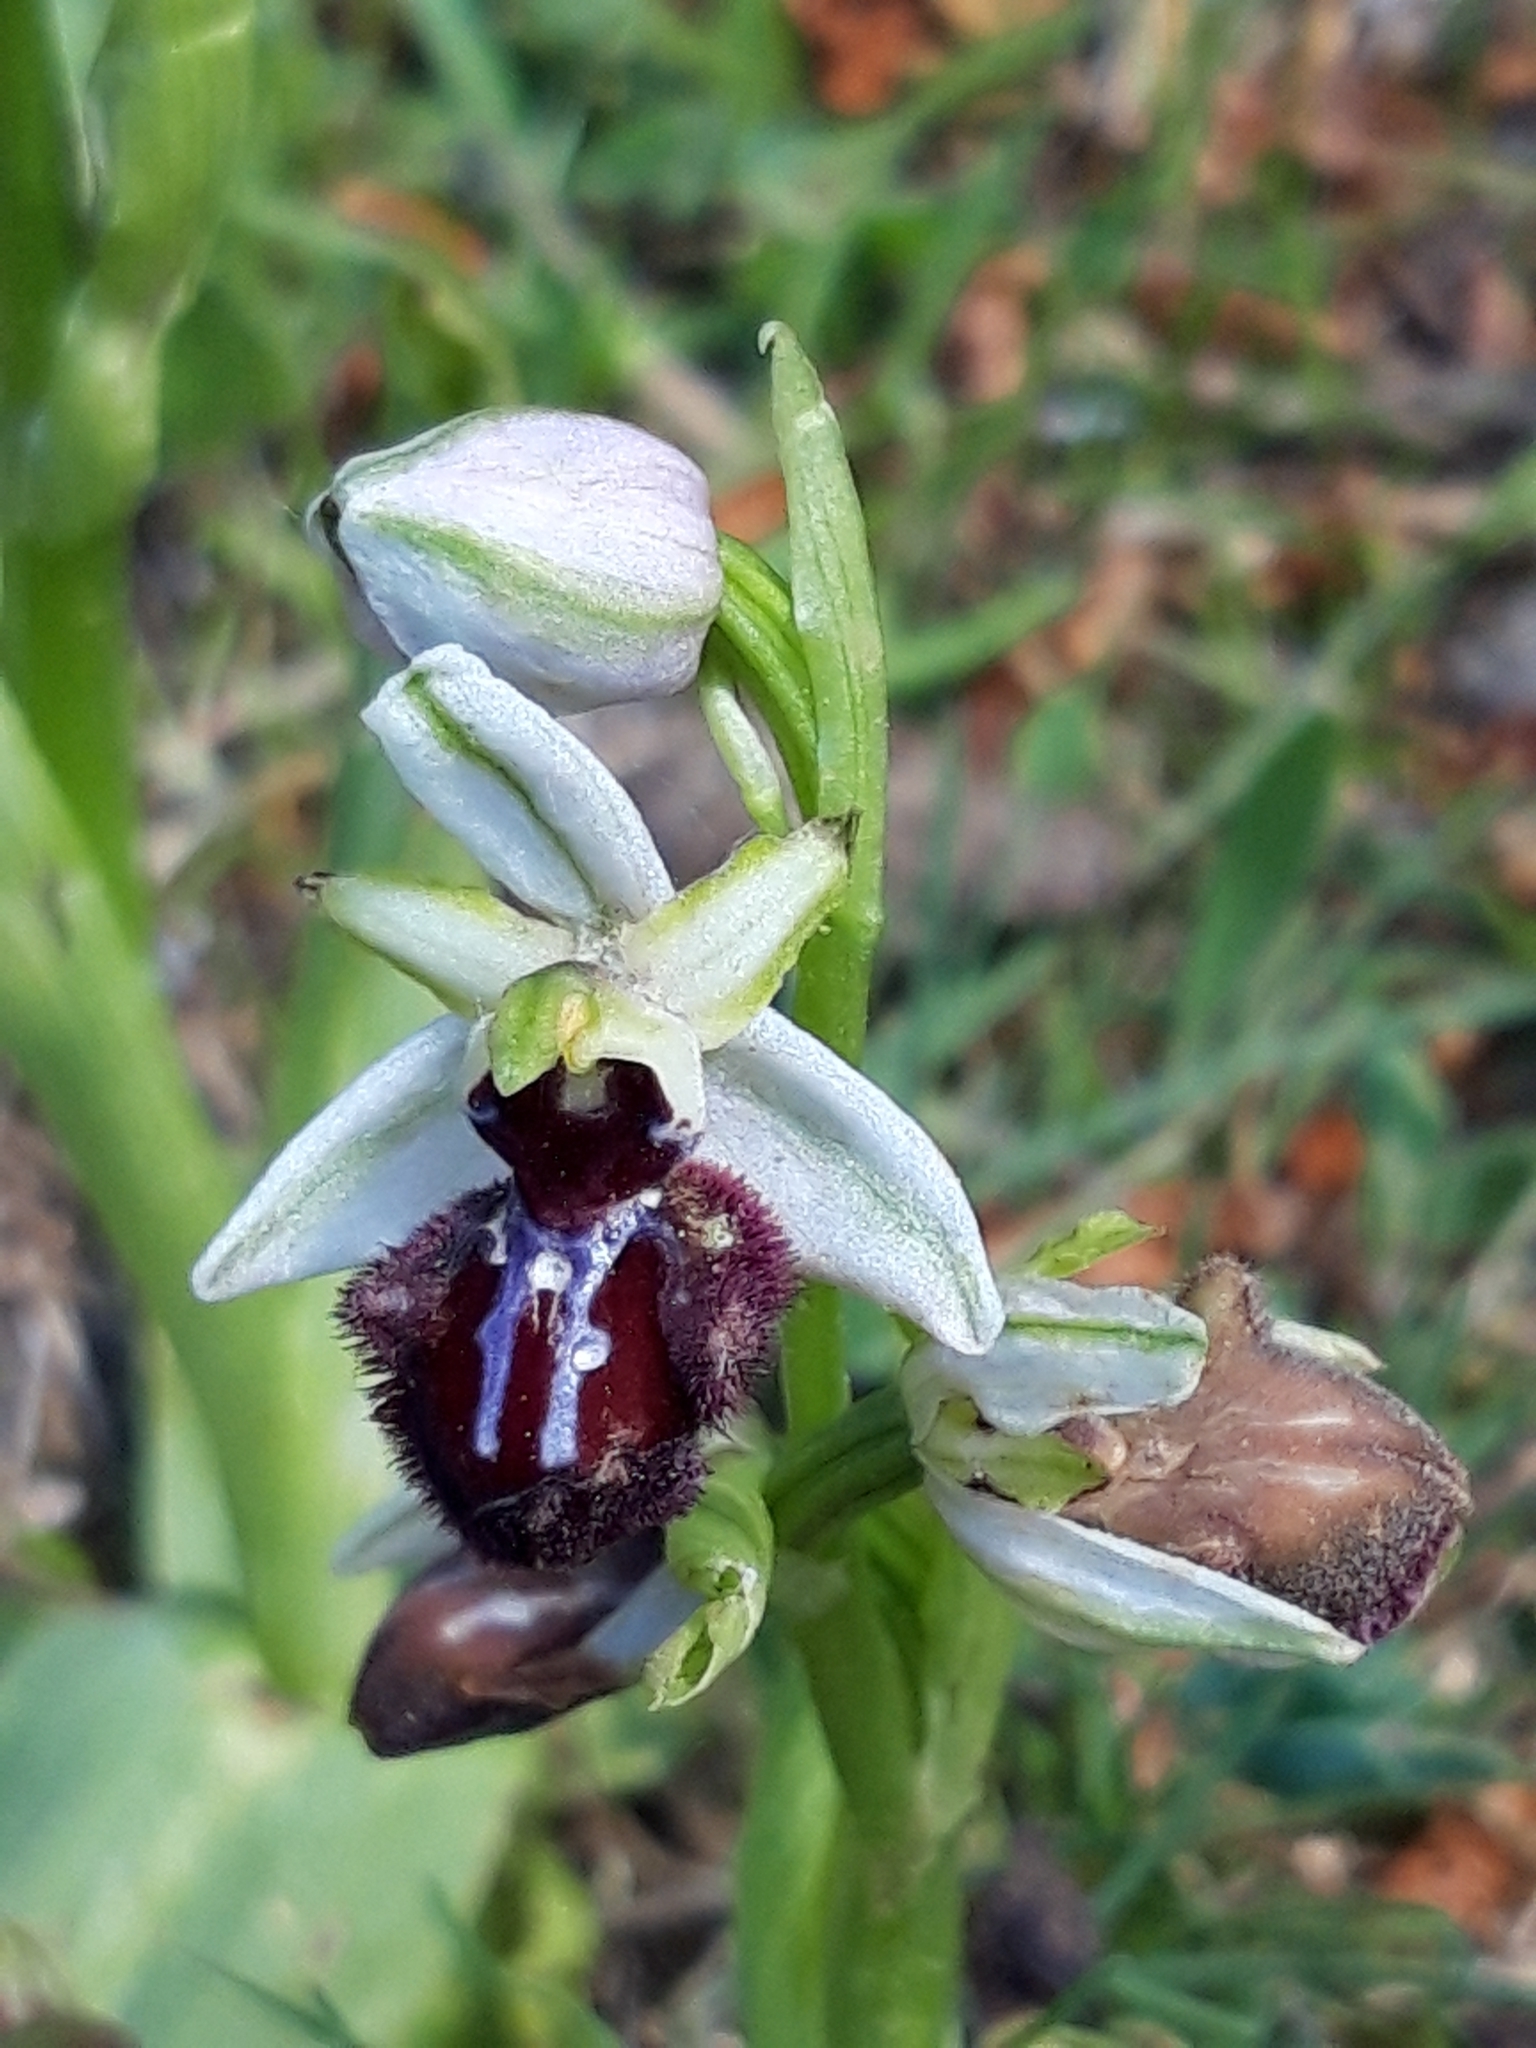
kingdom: Plantae
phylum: Tracheophyta
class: Liliopsida
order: Asparagales
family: Orchidaceae
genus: Ophrys
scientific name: Ophrys sphegodes
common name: Early spider-orchid
